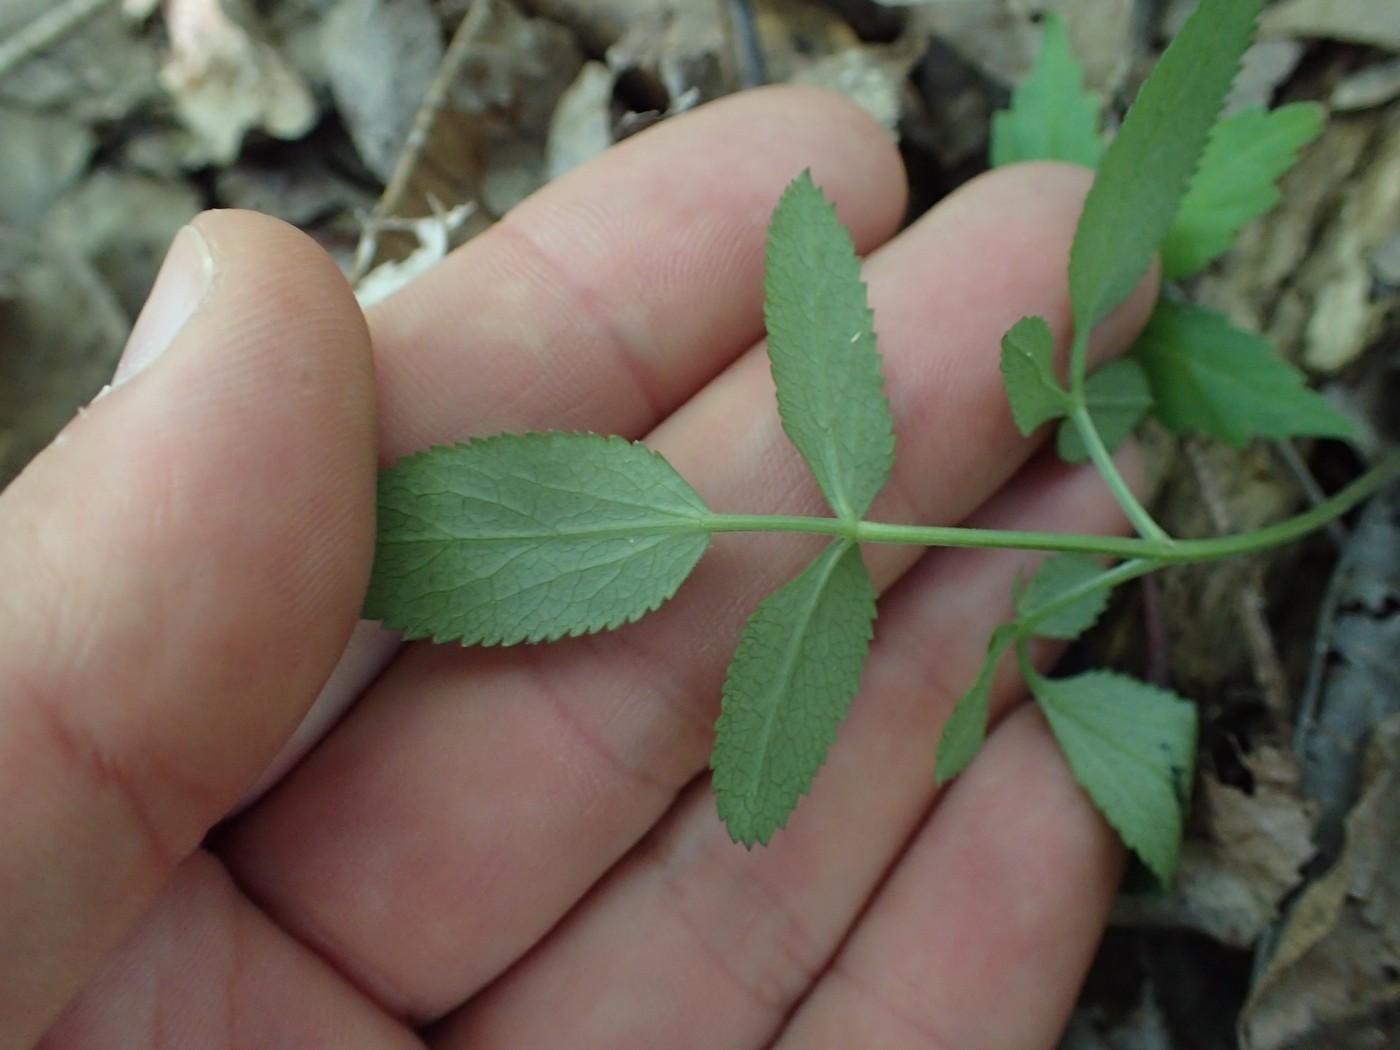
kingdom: Plantae
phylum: Tracheophyta
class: Magnoliopsida
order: Apiales
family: Apiaceae
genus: Angelica
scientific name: Angelica venenosa
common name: Hairy angelica
